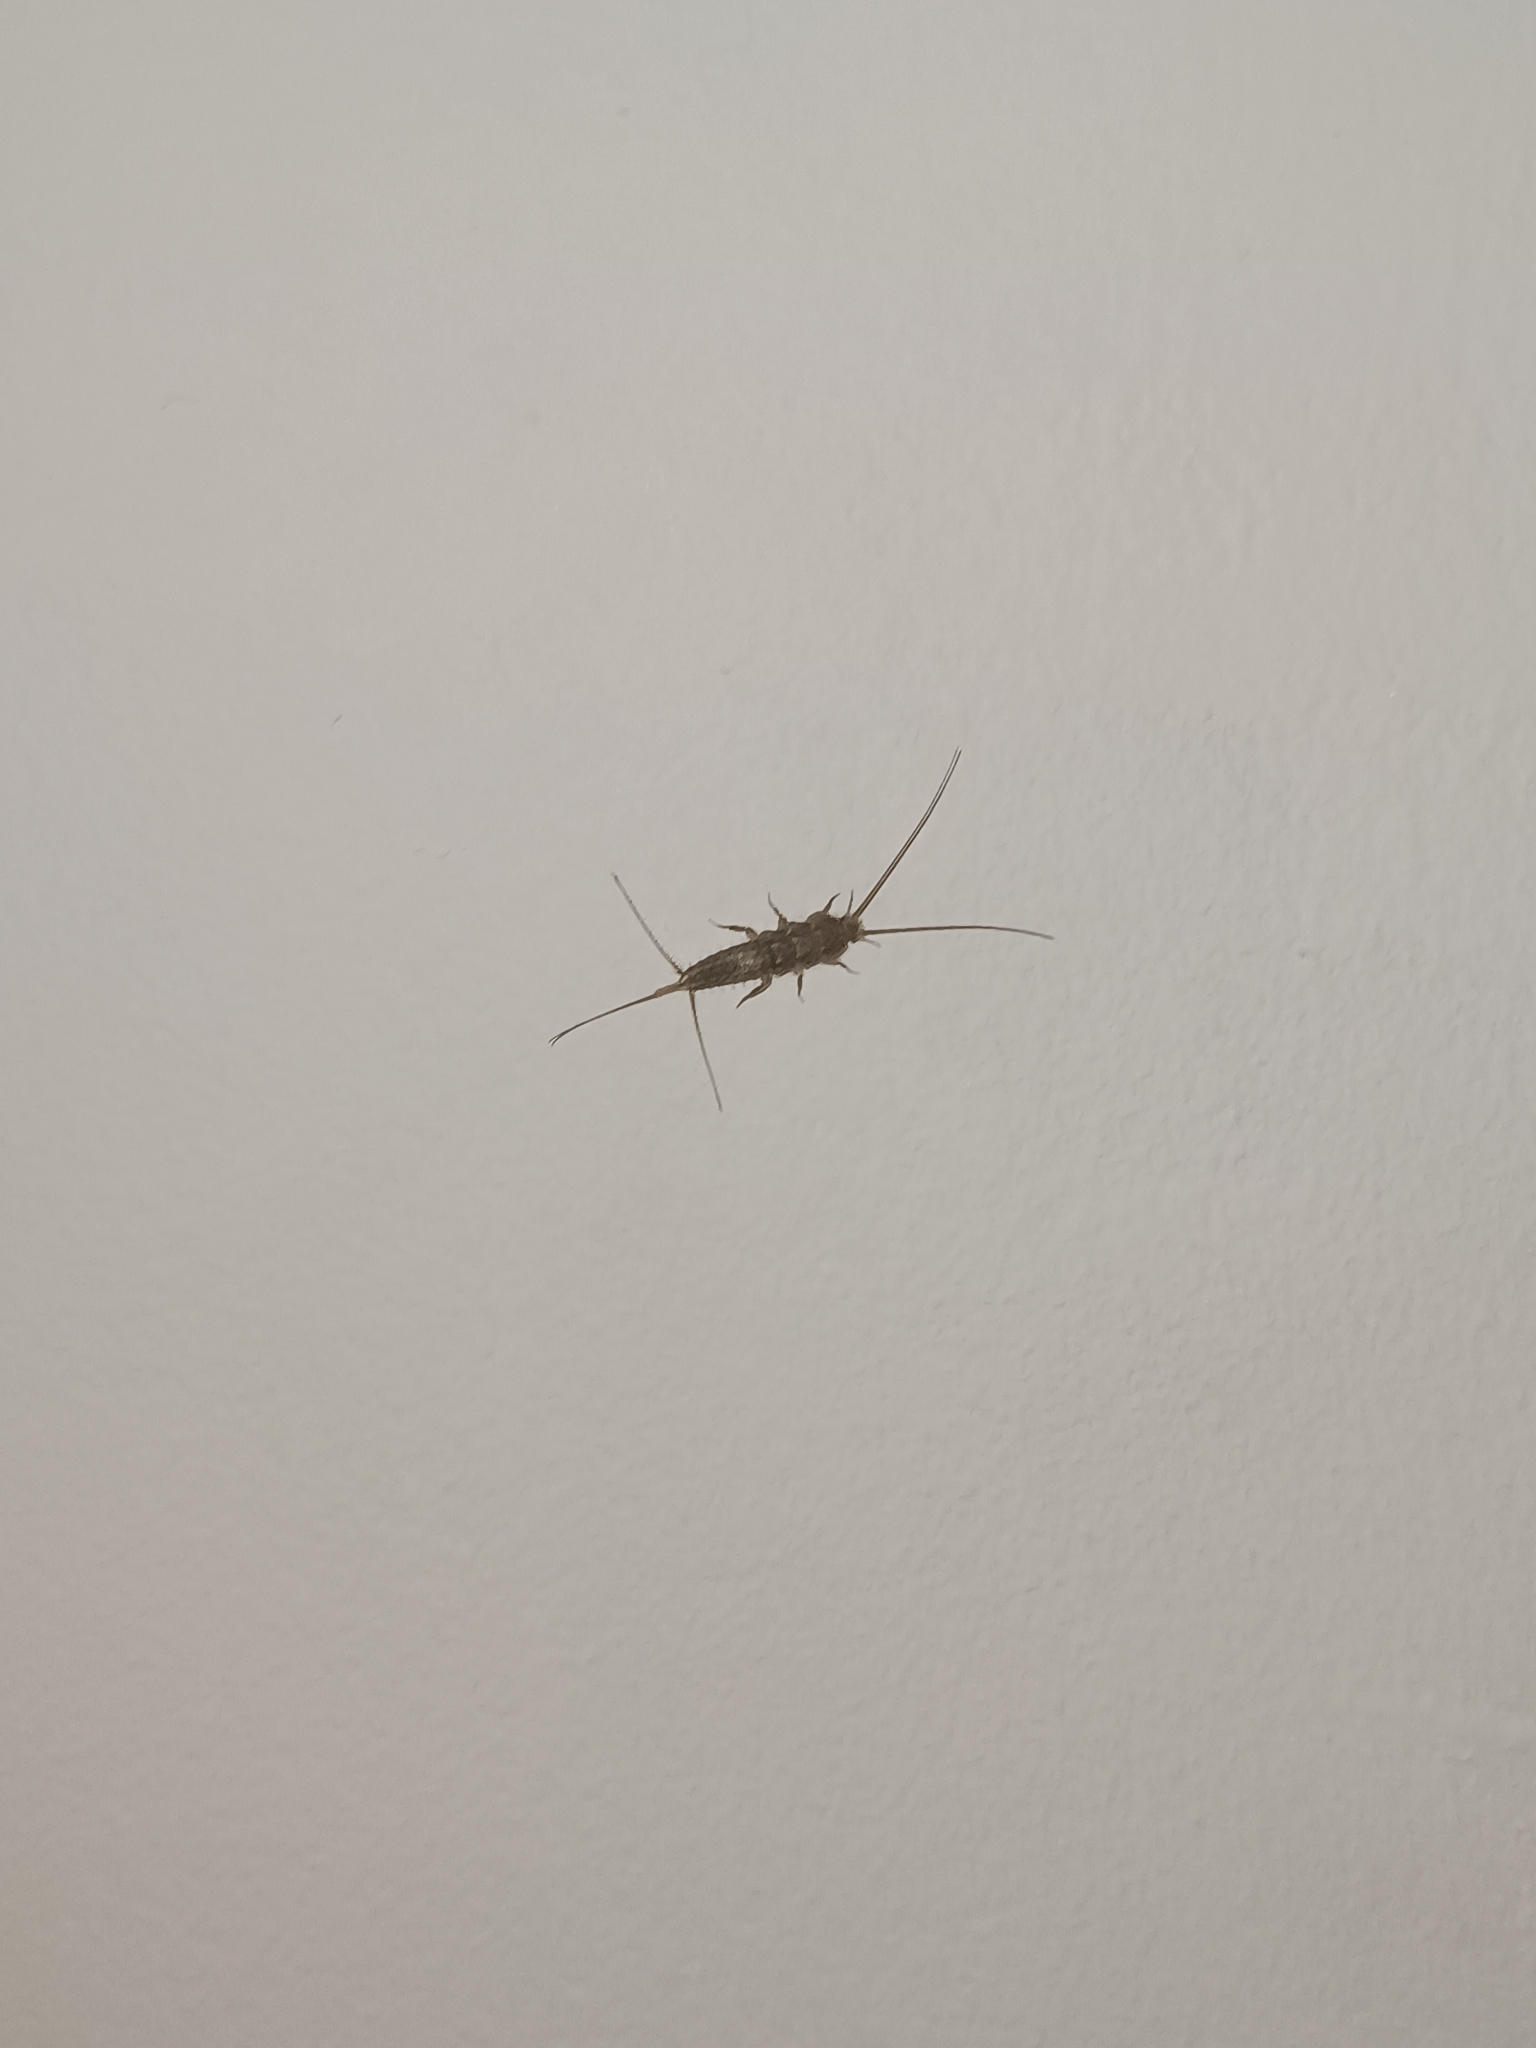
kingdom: Animalia
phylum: Arthropoda
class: Insecta
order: Zygentoma
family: Lepismatidae
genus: Ctenolepisma
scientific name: Ctenolepisma lineata
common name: Four-lined silverfish
